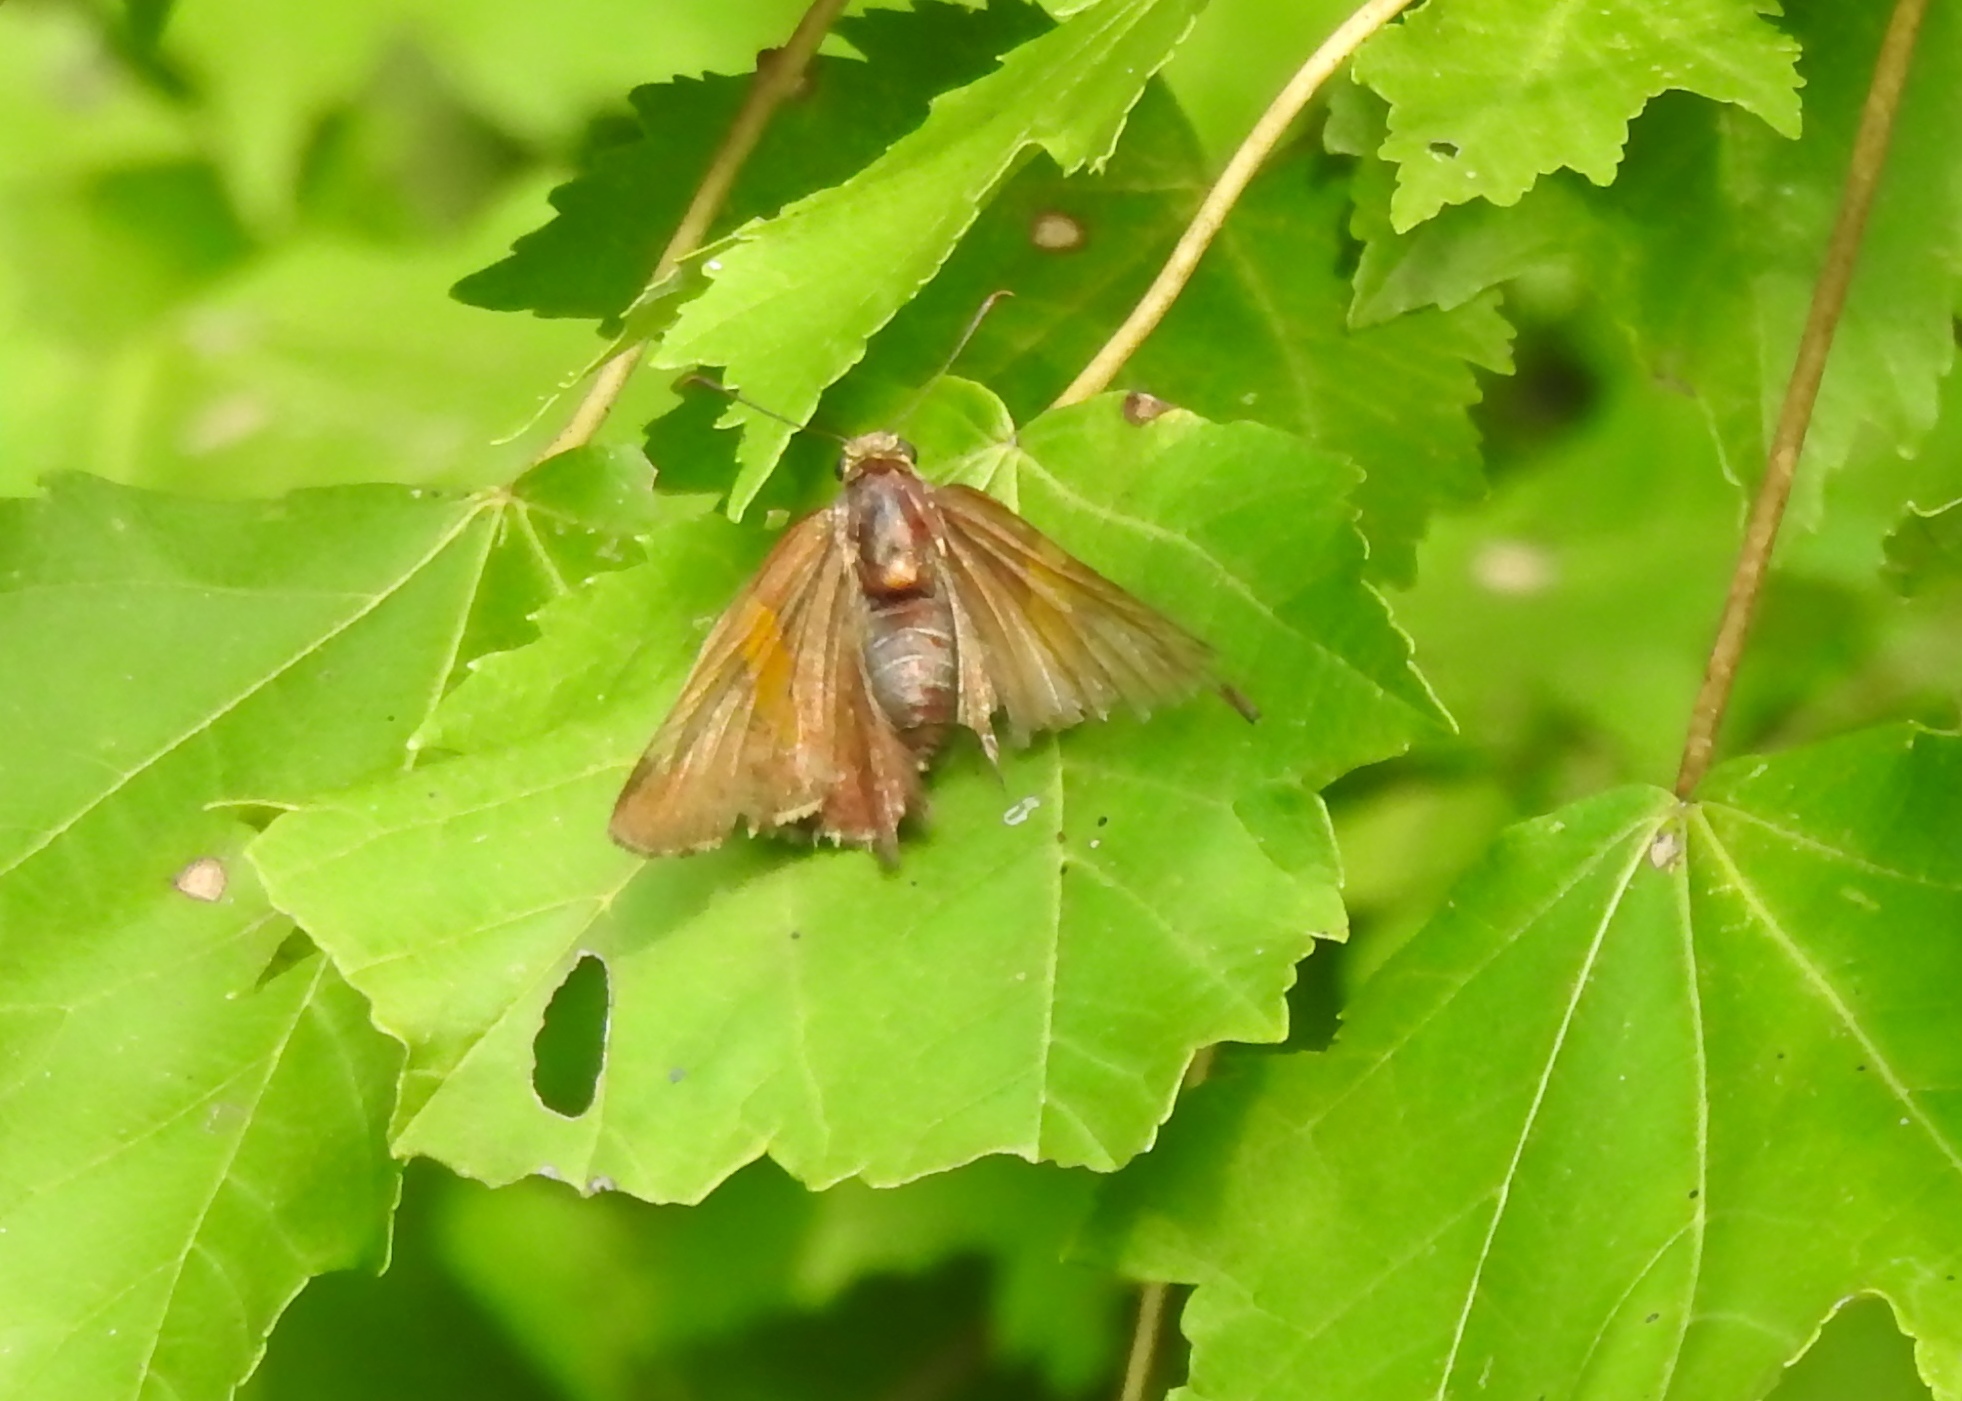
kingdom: Animalia
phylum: Arthropoda
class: Insecta
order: Lepidoptera
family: Hesperiidae
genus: Epargyreus
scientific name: Epargyreus clarus
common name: Silver-spotted skipper
